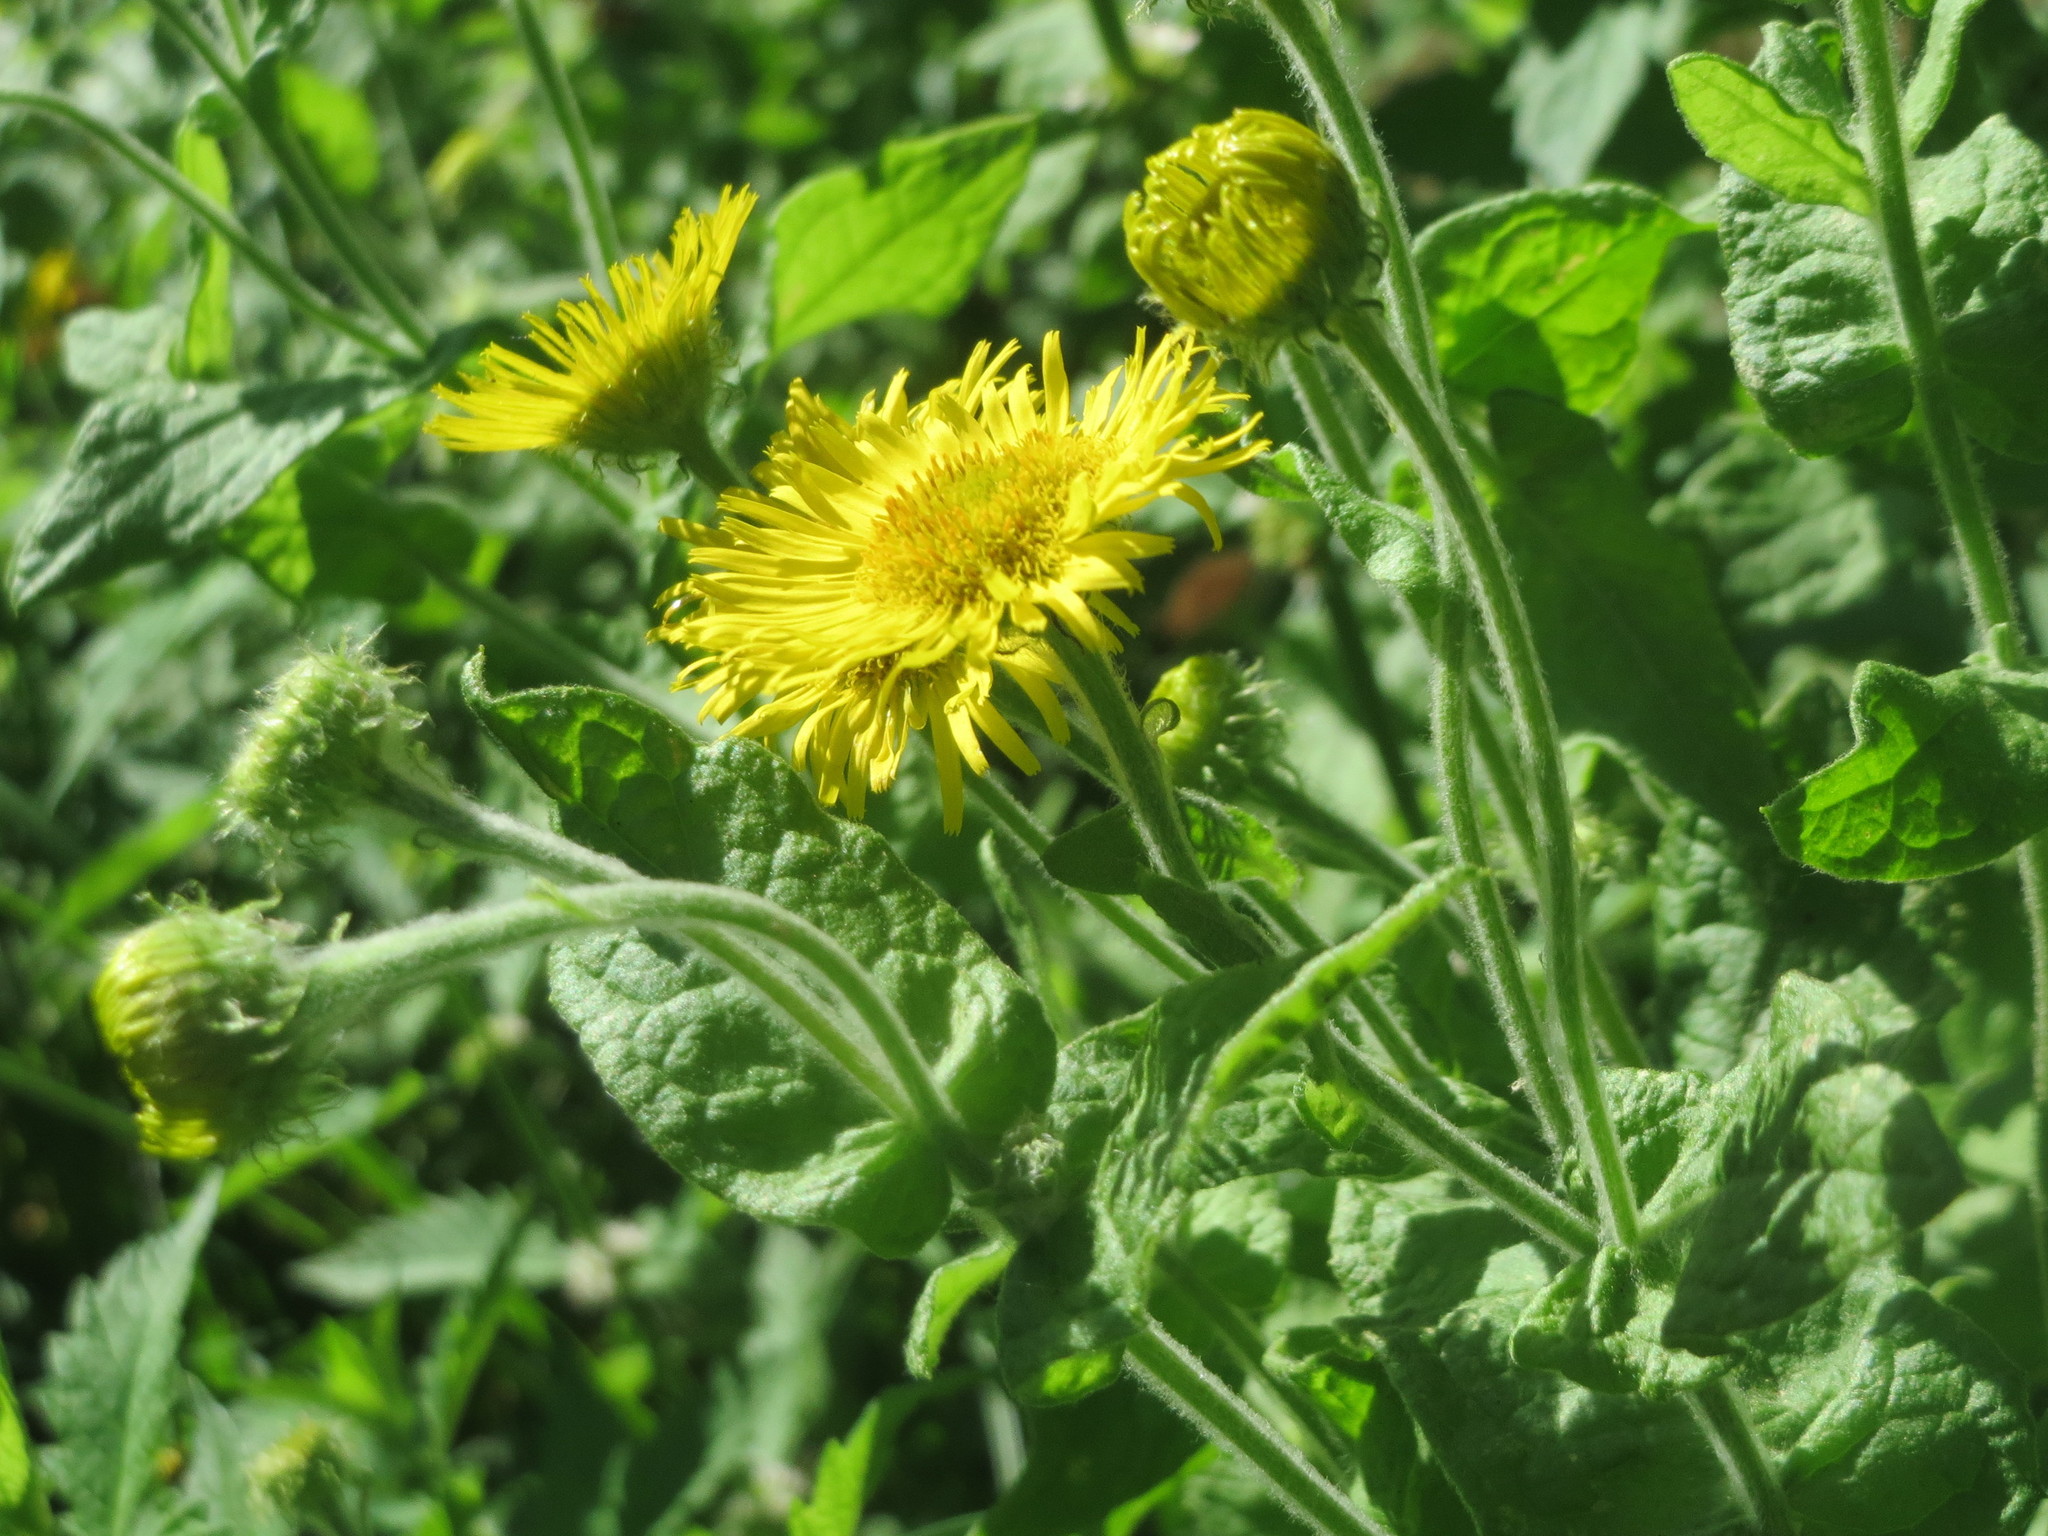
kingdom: Plantae
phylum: Tracheophyta
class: Magnoliopsida
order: Asterales
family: Asteraceae
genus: Pulicaria
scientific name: Pulicaria dysenterica
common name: Common fleabane
